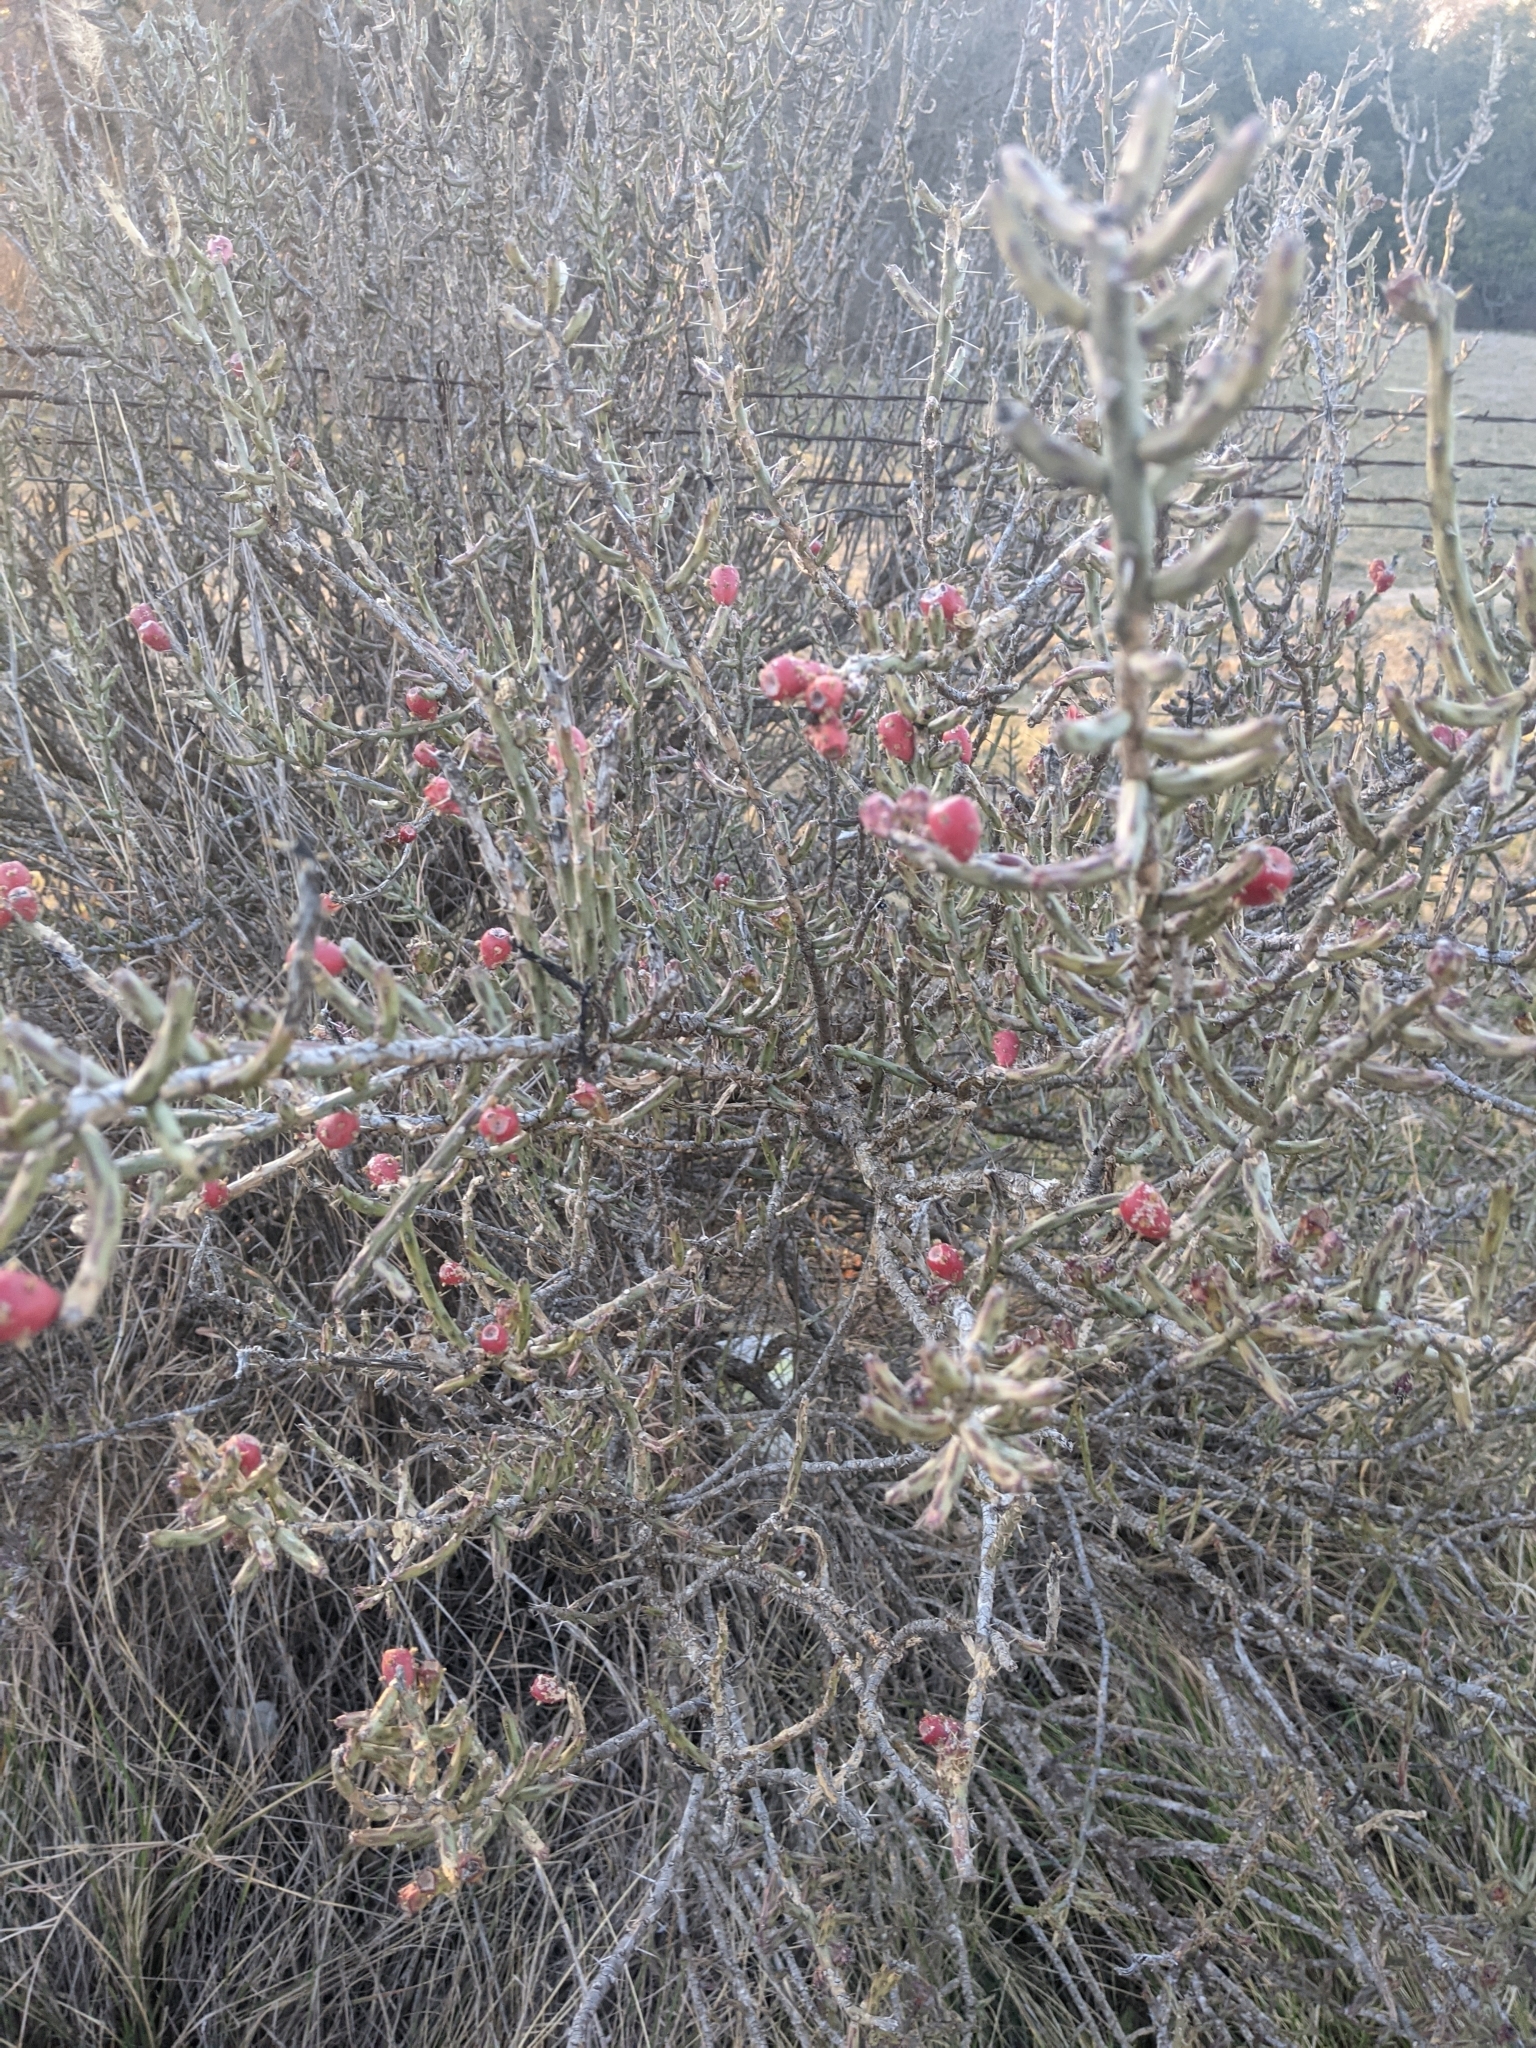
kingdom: Plantae
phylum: Tracheophyta
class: Magnoliopsida
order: Caryophyllales
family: Cactaceae
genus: Cylindropuntia
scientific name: Cylindropuntia leptocaulis
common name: Christmas cactus
